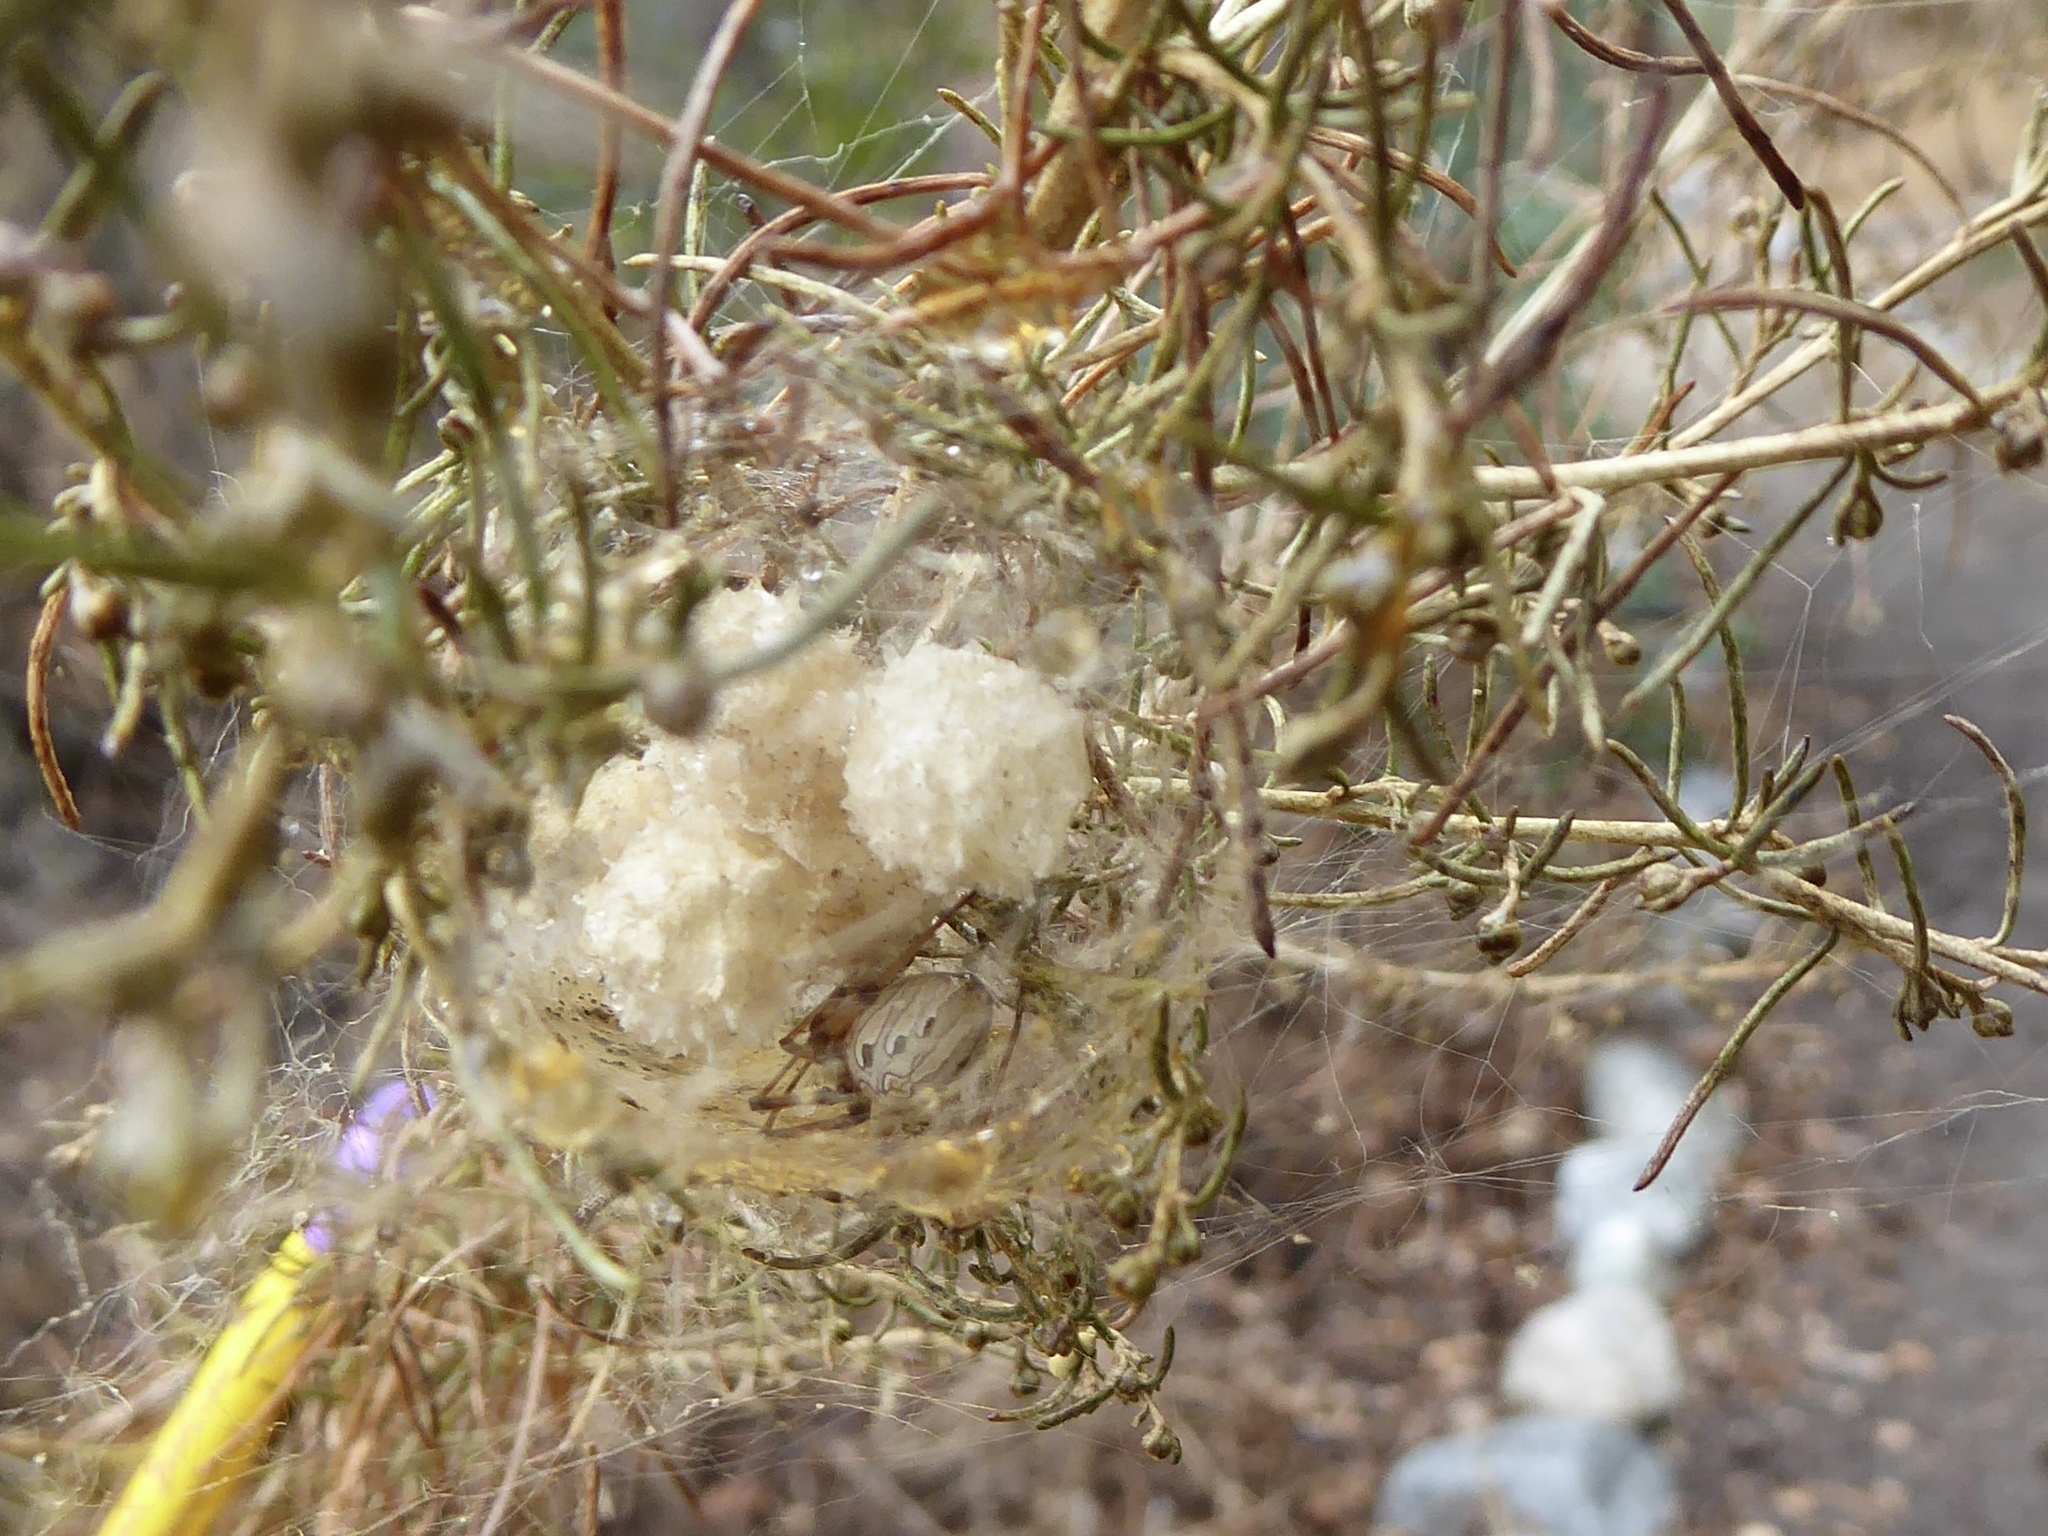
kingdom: Animalia
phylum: Arthropoda
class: Arachnida
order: Araneae
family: Theridiidae
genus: Latrodectus
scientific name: Latrodectus geometricus
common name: Brown widow spider
